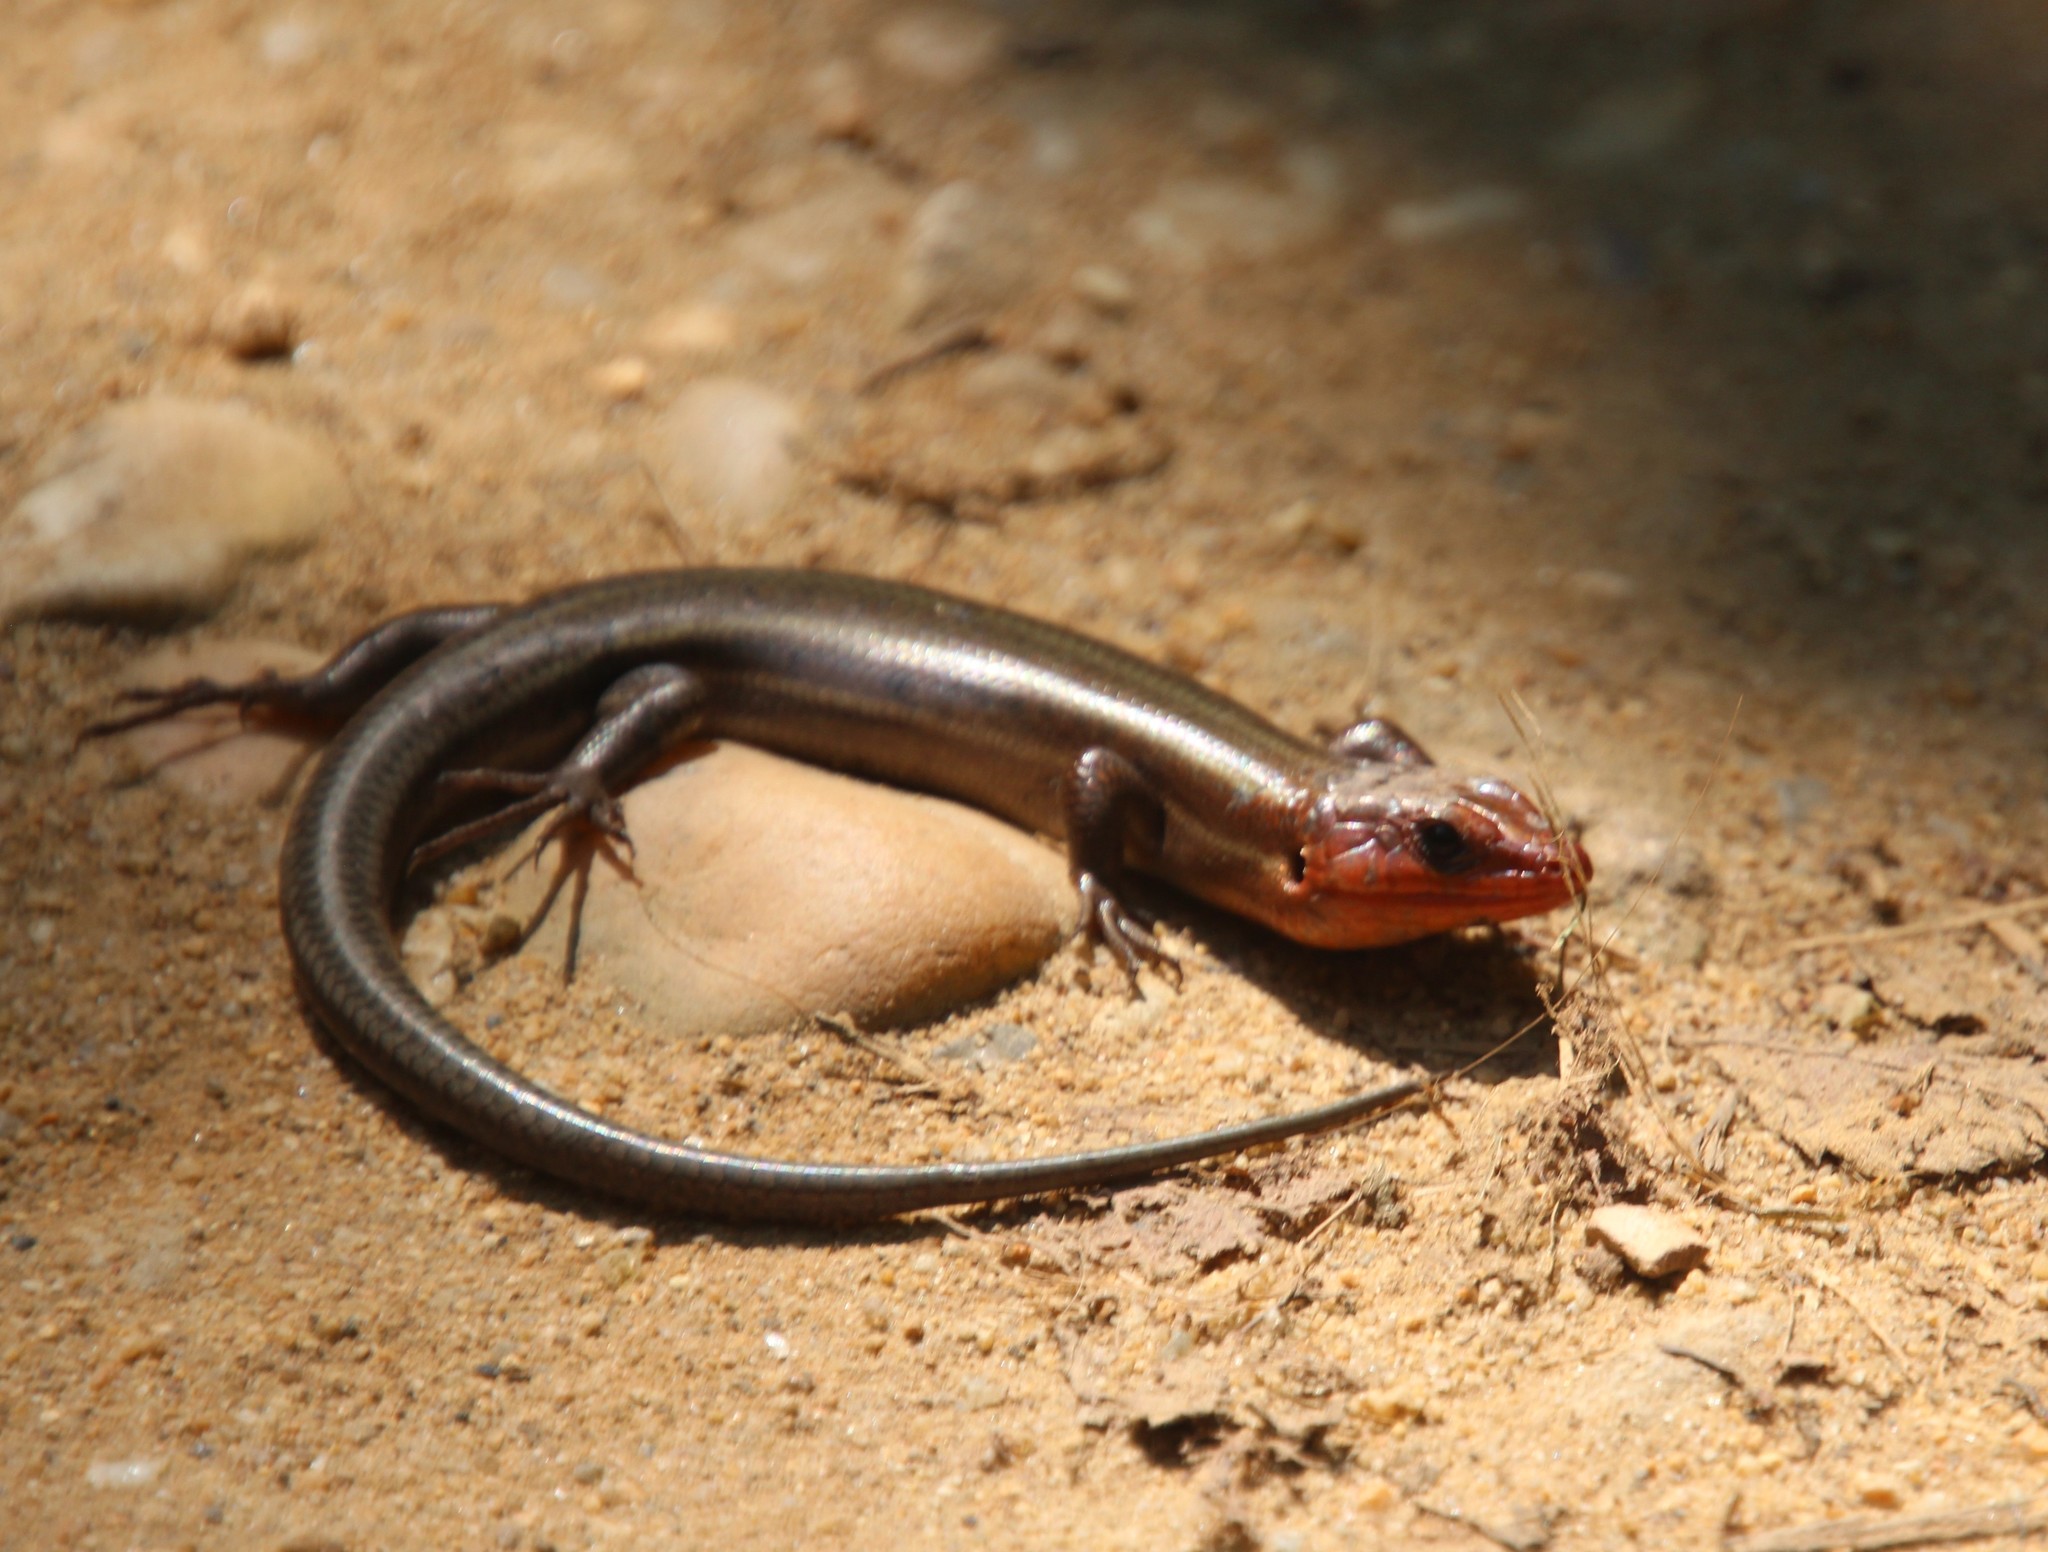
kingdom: Animalia
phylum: Chordata
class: Squamata
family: Scincidae
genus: Plestiodon
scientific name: Plestiodon fasciatus
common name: Five-lined skink
